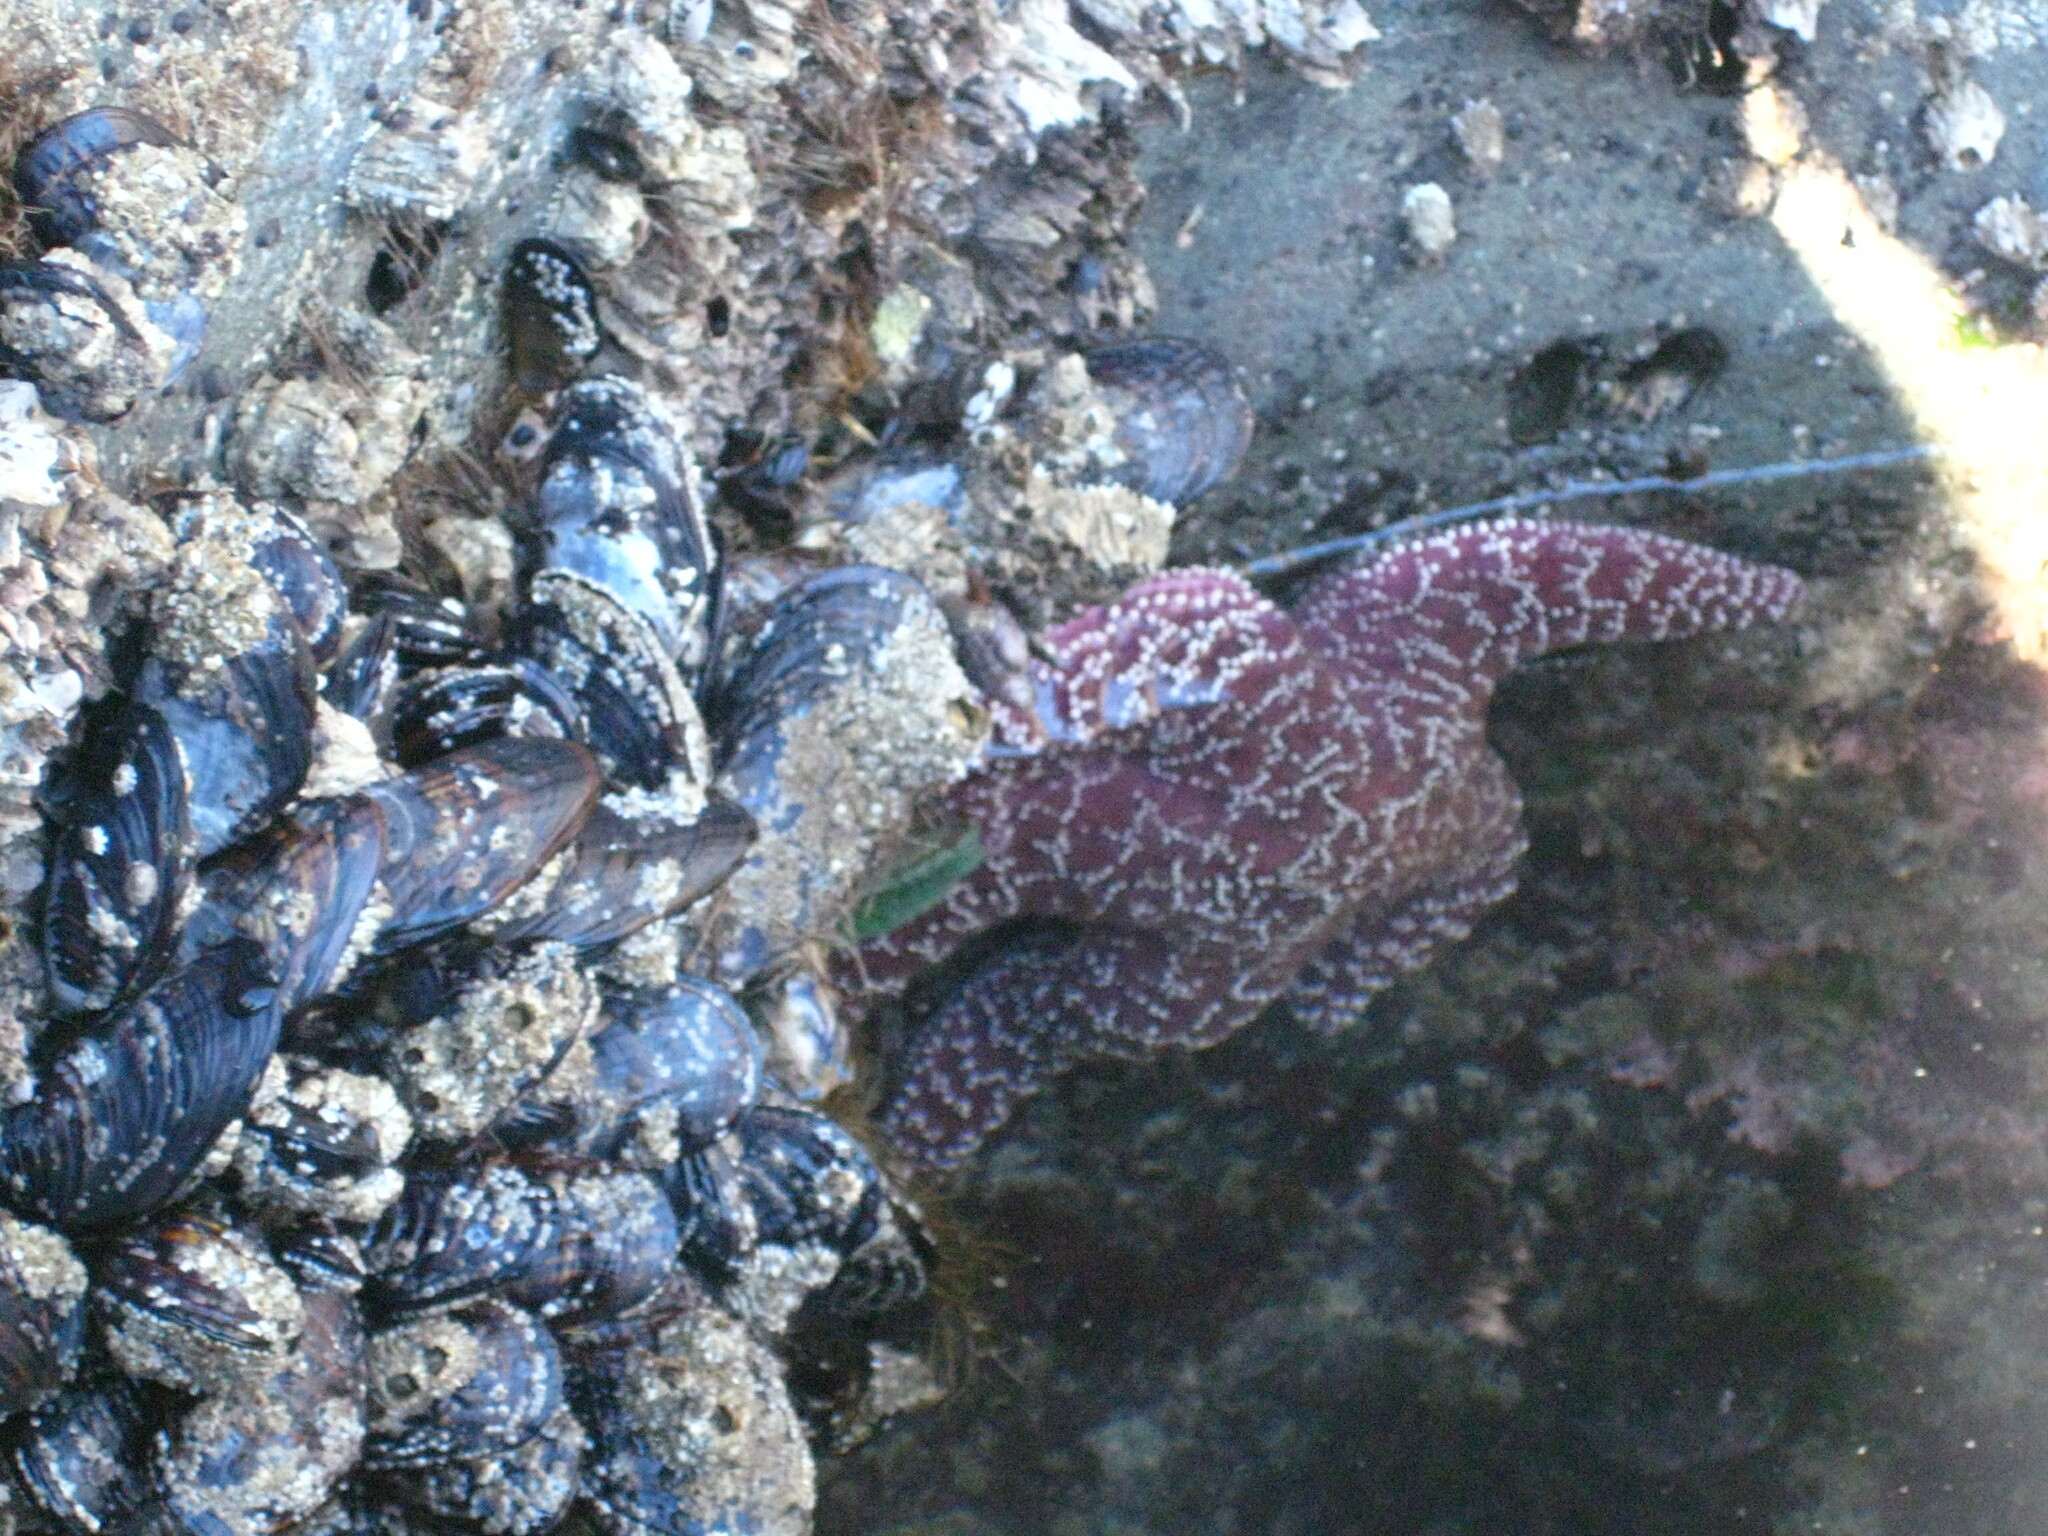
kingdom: Animalia
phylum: Echinodermata
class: Asteroidea
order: Forcipulatida
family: Asteriidae
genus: Pisaster
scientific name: Pisaster ochraceus
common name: Ochre stars
